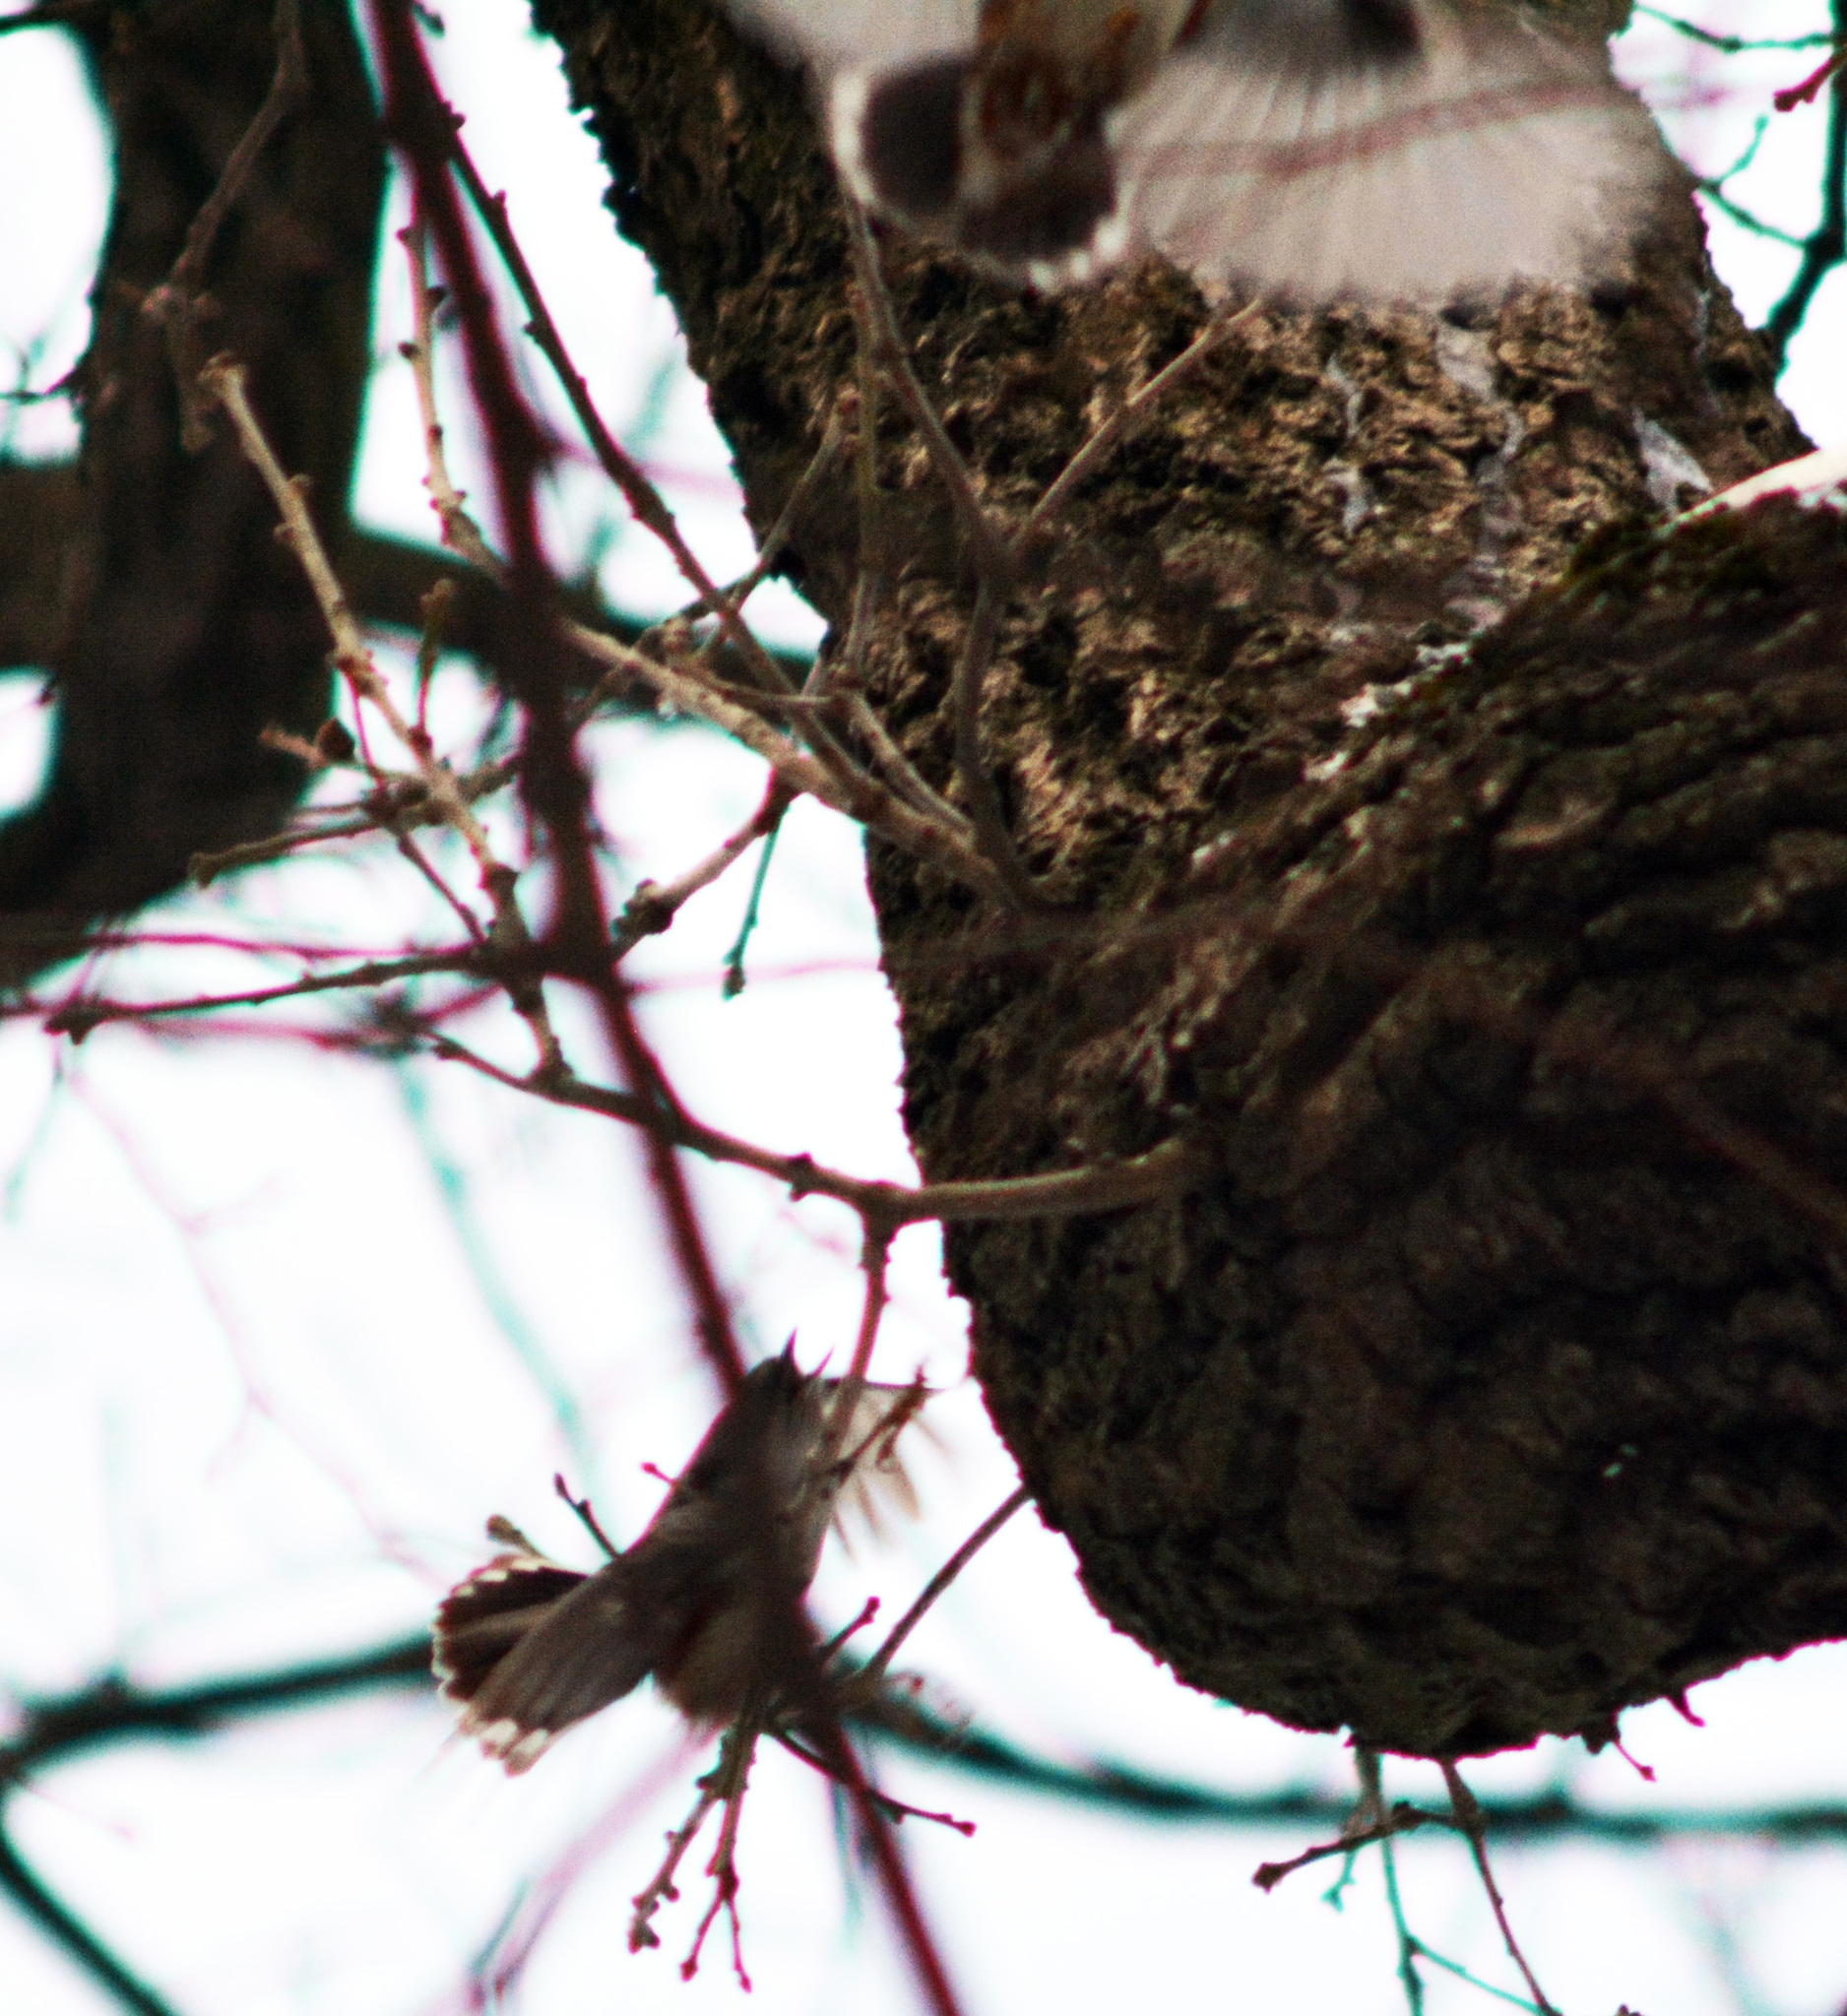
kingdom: Animalia
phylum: Chordata
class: Aves
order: Passeriformes
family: Sittidae
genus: Sitta
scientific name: Sitta europaea
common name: Eurasian nuthatch
